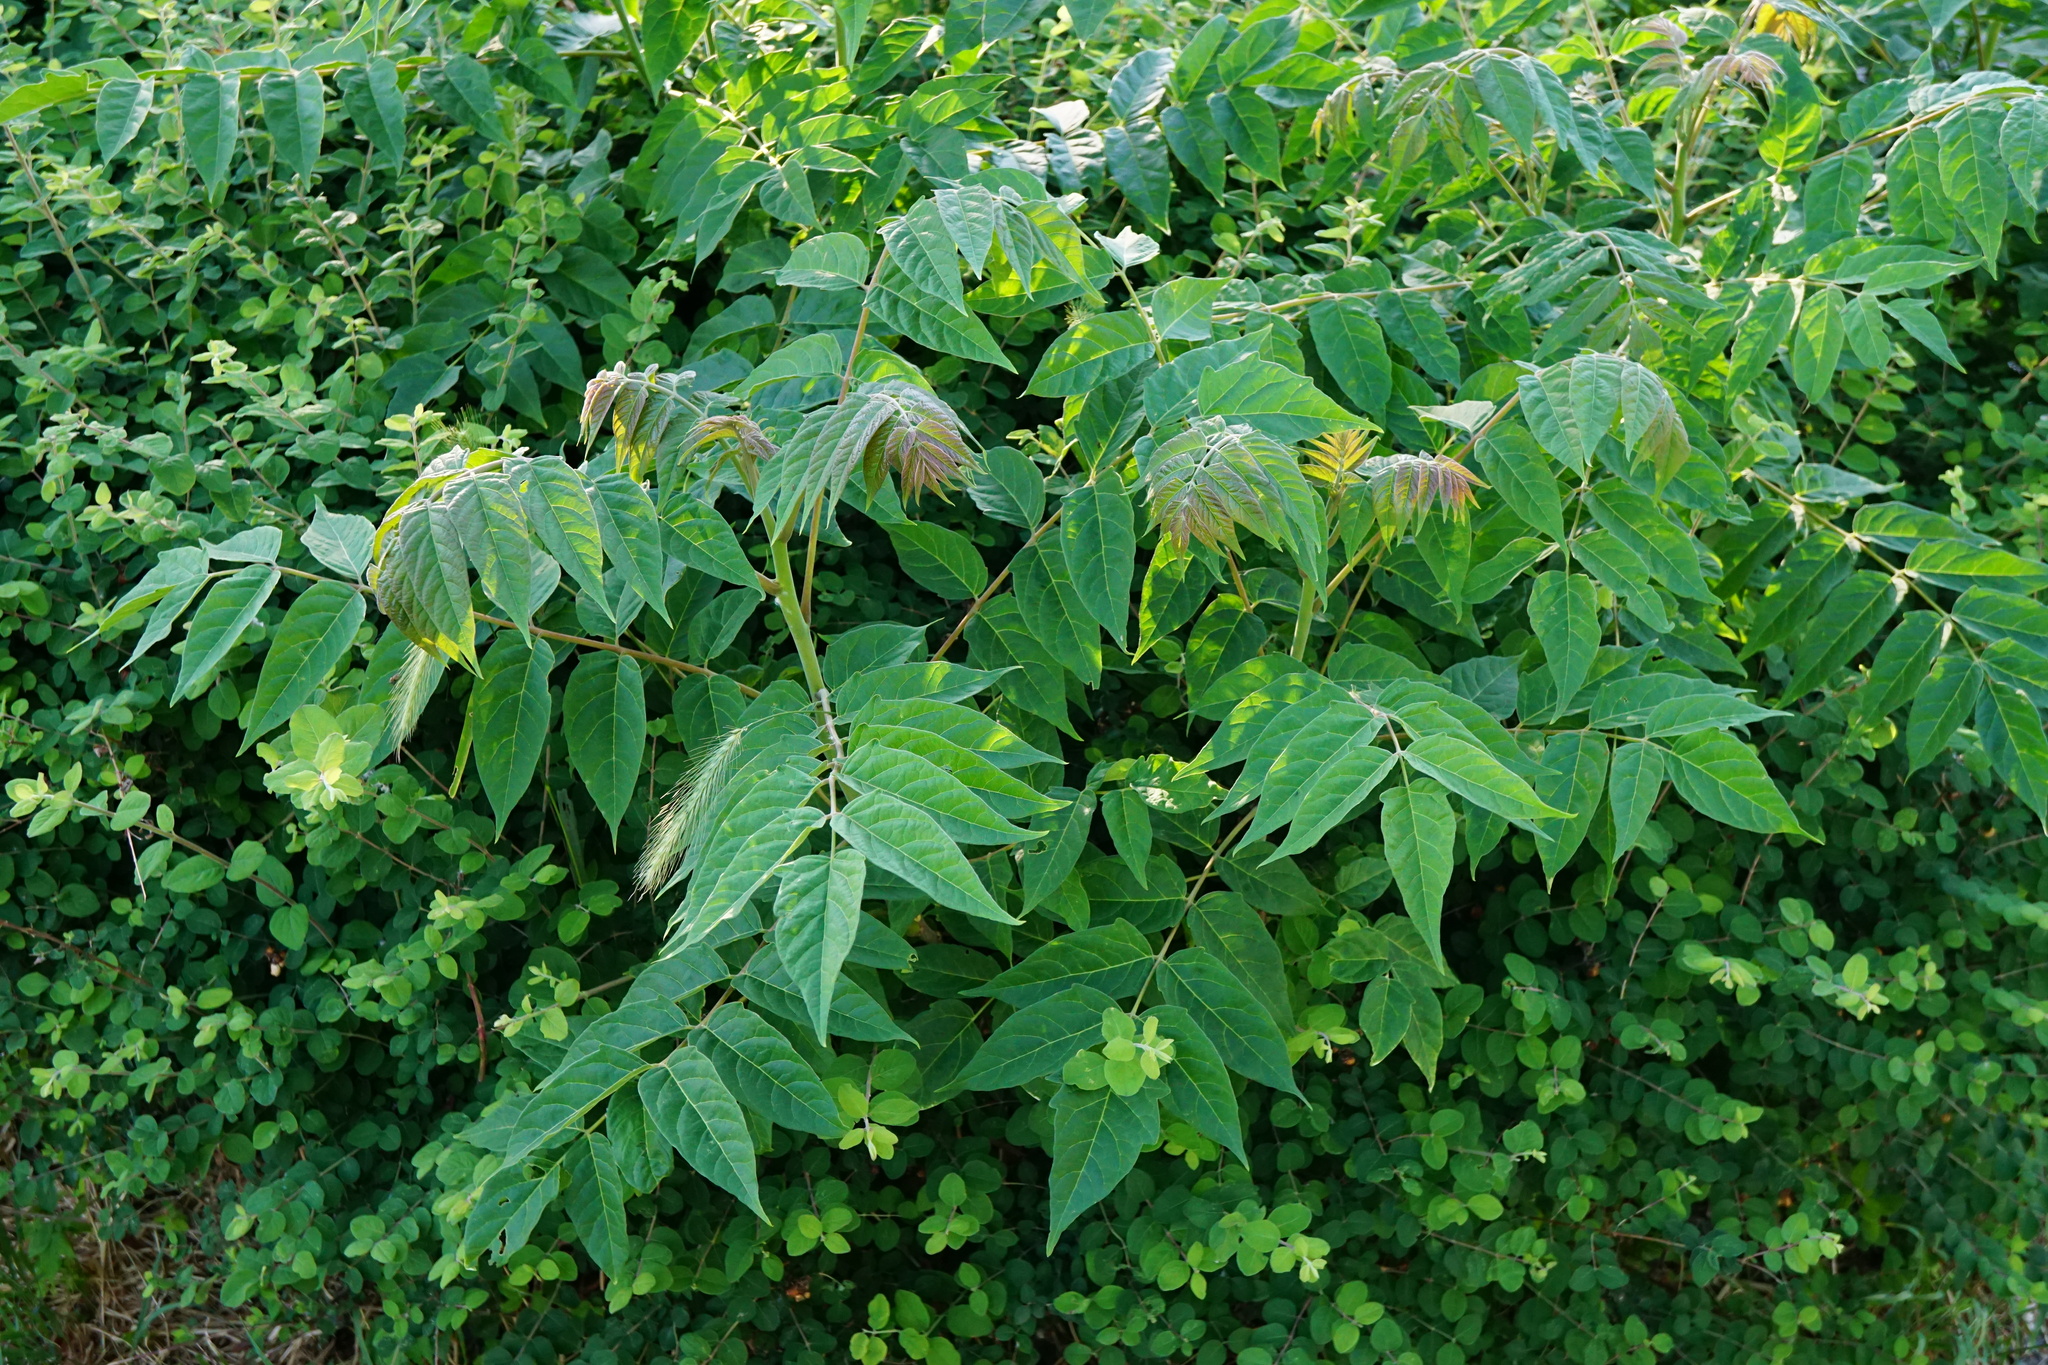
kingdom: Plantae
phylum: Tracheophyta
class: Magnoliopsida
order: Sapindales
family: Simaroubaceae
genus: Ailanthus
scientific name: Ailanthus altissima
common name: Tree-of-heaven
